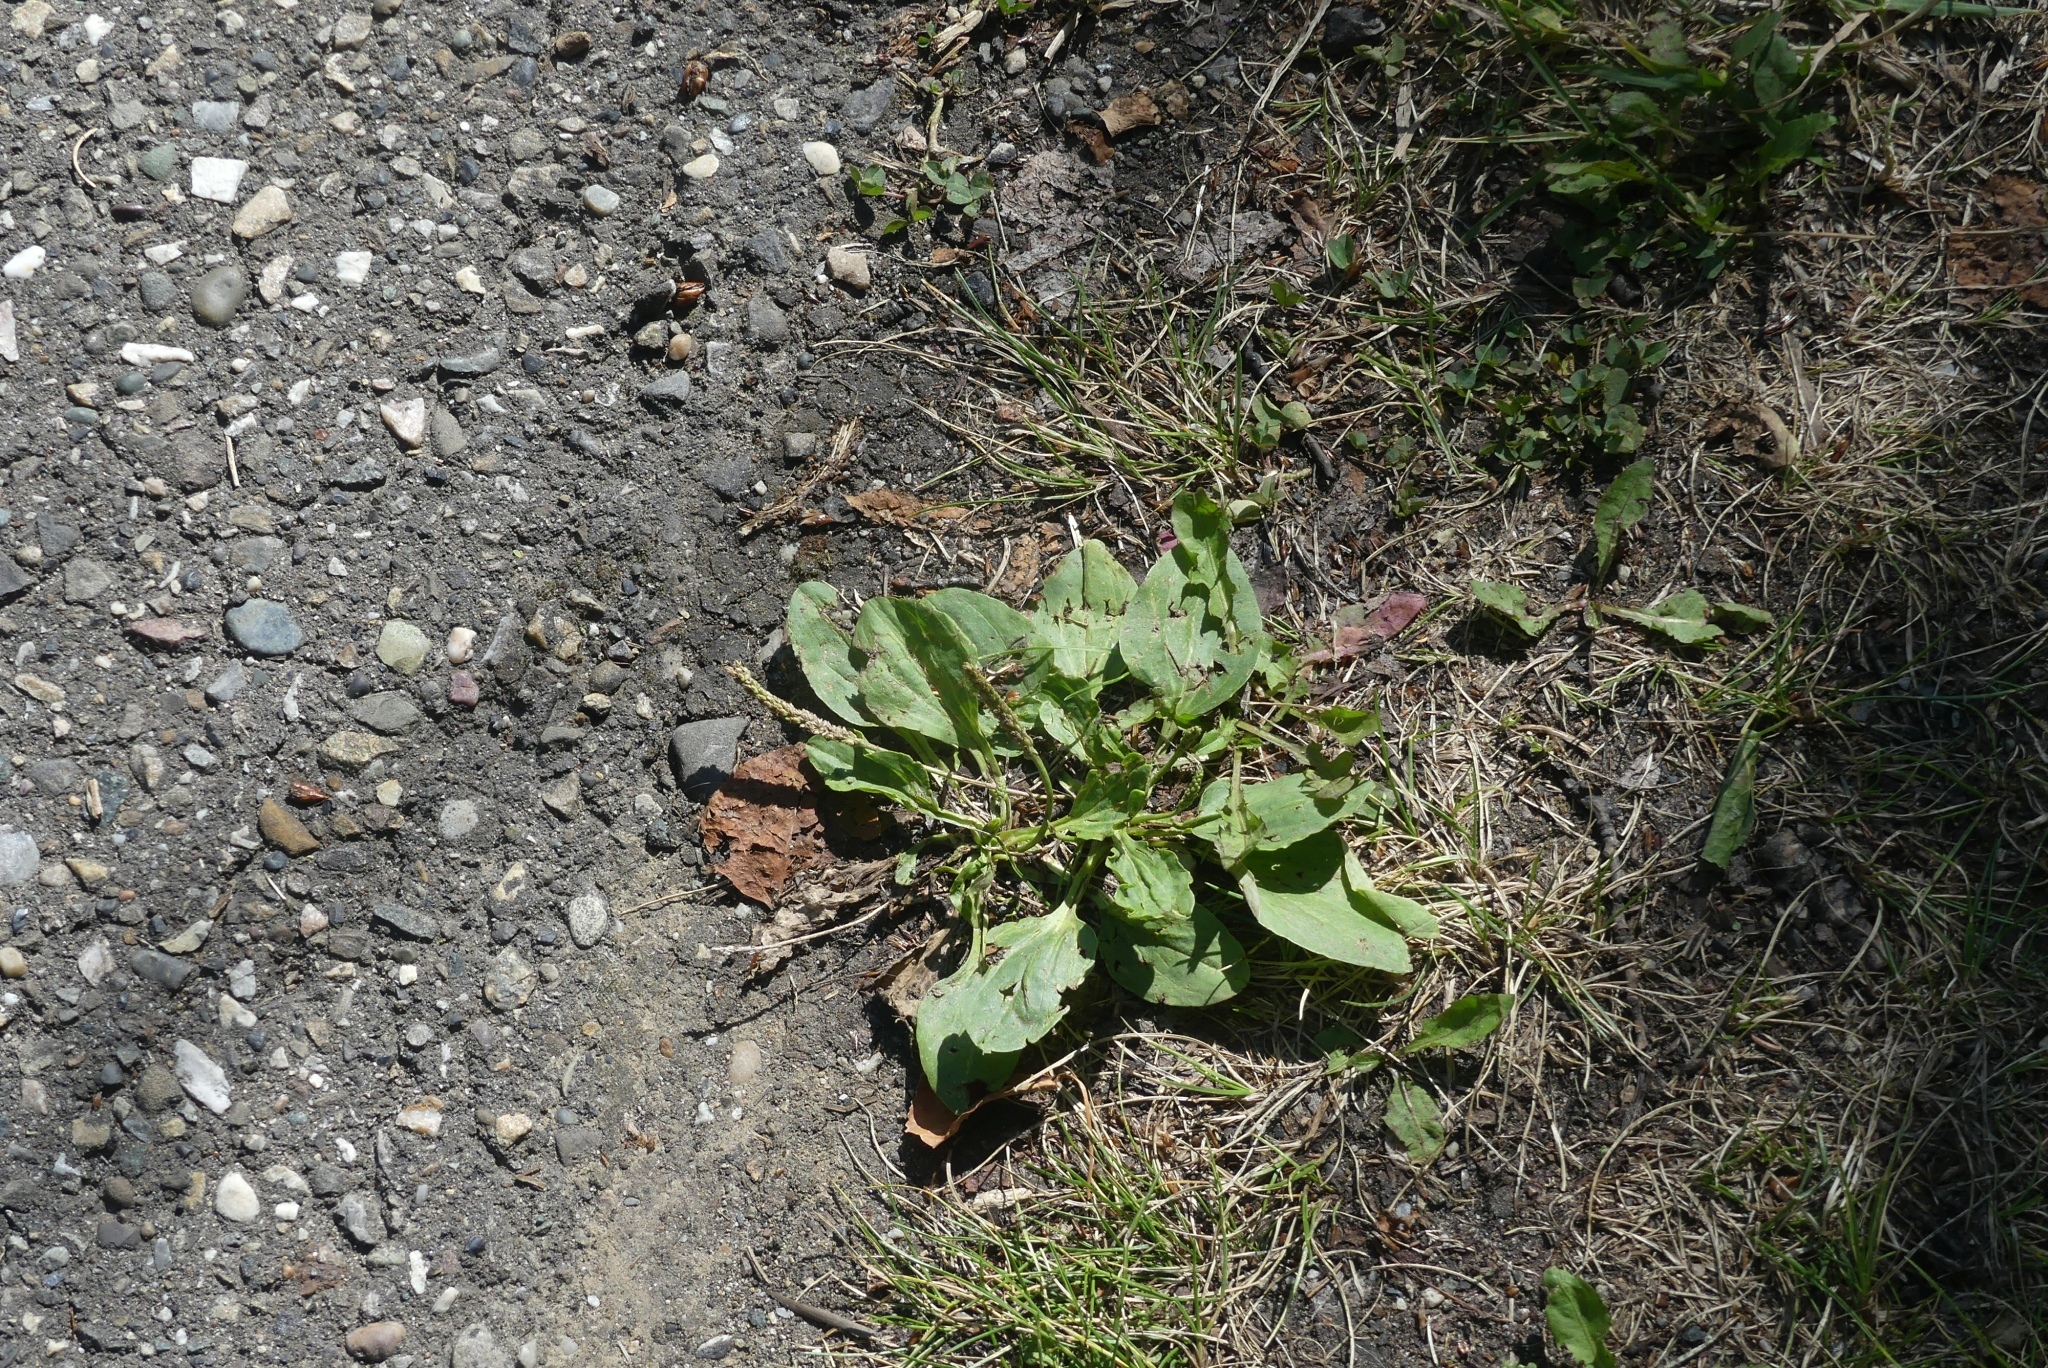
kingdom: Plantae
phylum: Tracheophyta
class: Magnoliopsida
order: Lamiales
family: Plantaginaceae
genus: Plantago
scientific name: Plantago major
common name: Common plantain
